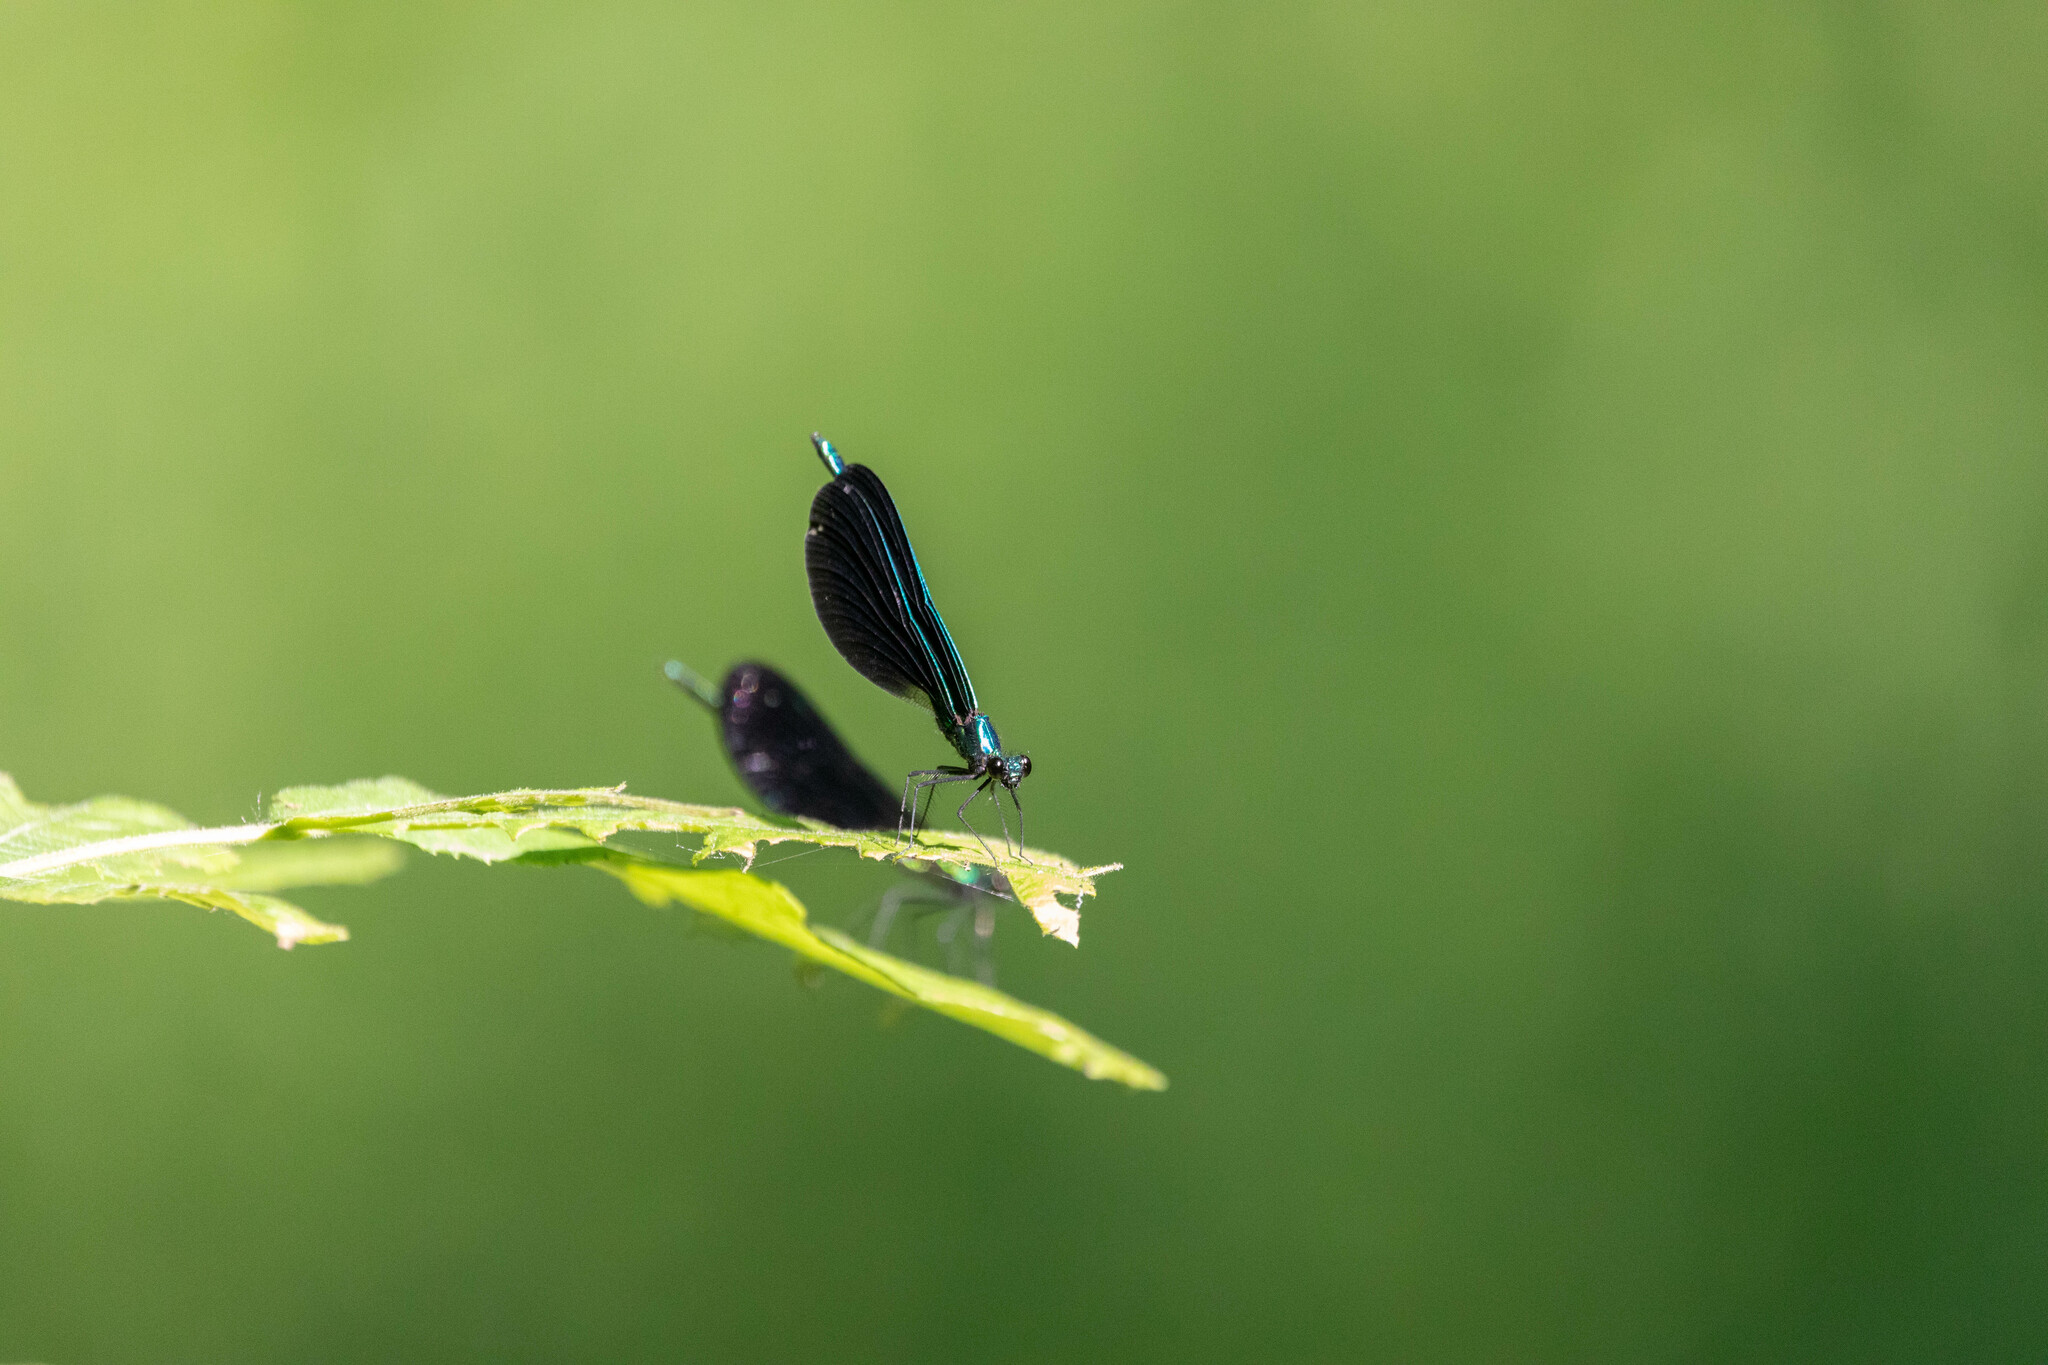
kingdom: Animalia
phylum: Arthropoda
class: Insecta
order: Odonata
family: Calopterygidae
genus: Calopteryx
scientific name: Calopteryx maculata
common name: Ebony jewelwing
